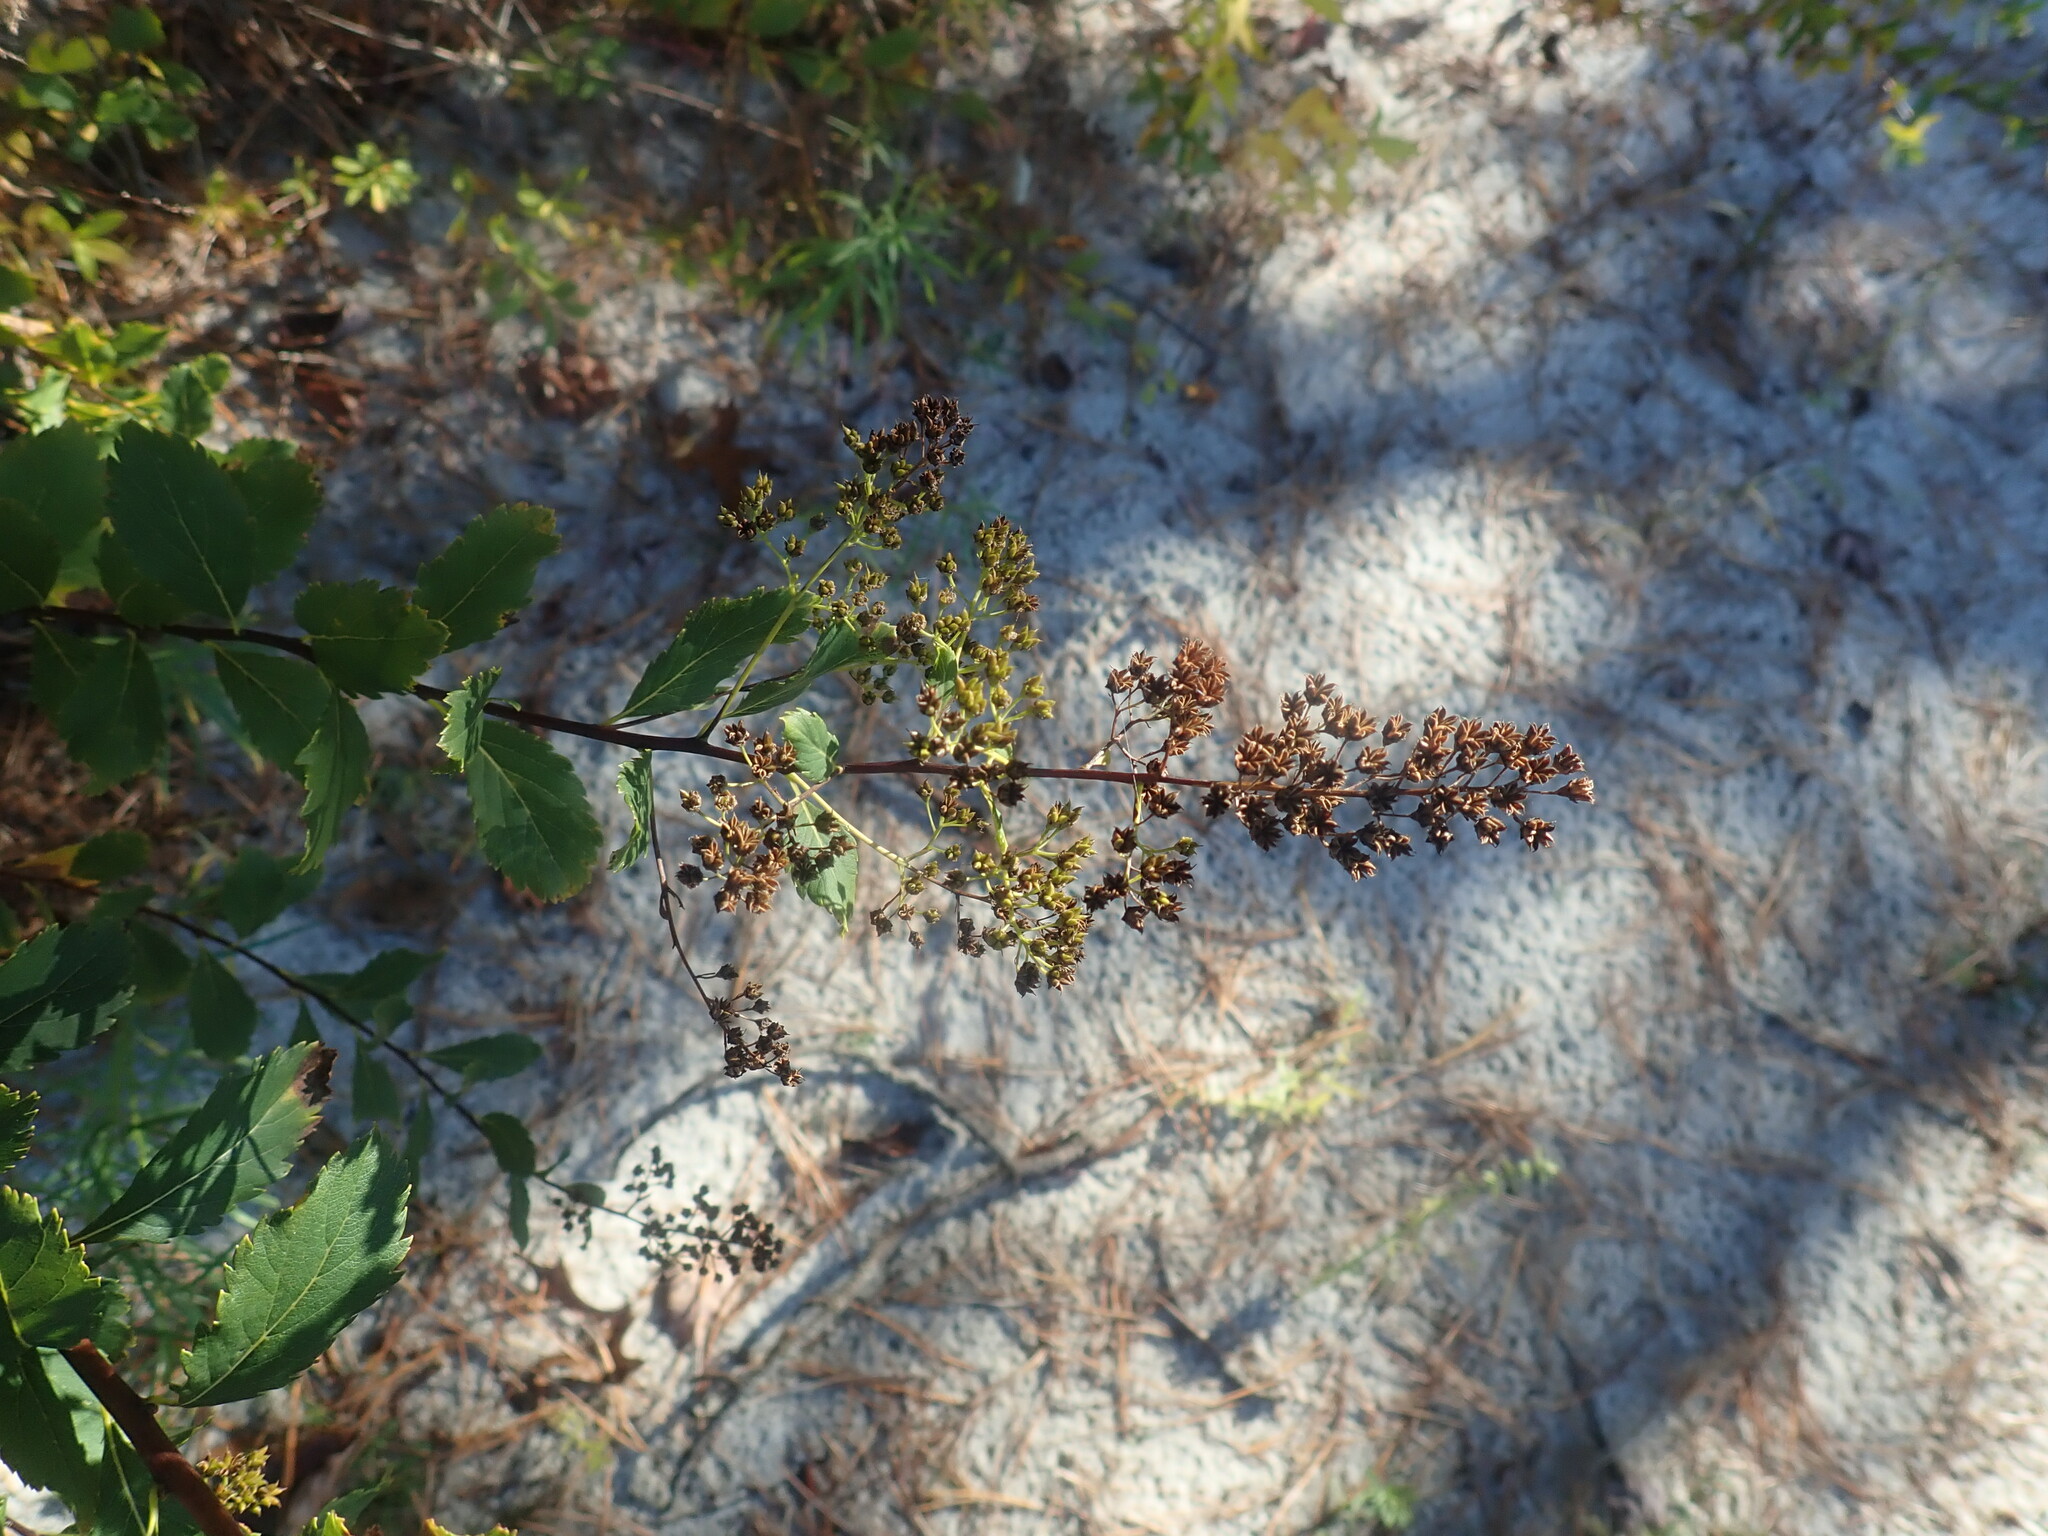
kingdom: Plantae
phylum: Tracheophyta
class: Magnoliopsida
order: Rosales
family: Rosaceae
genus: Spiraea
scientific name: Spiraea alba
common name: Pale bridewort
